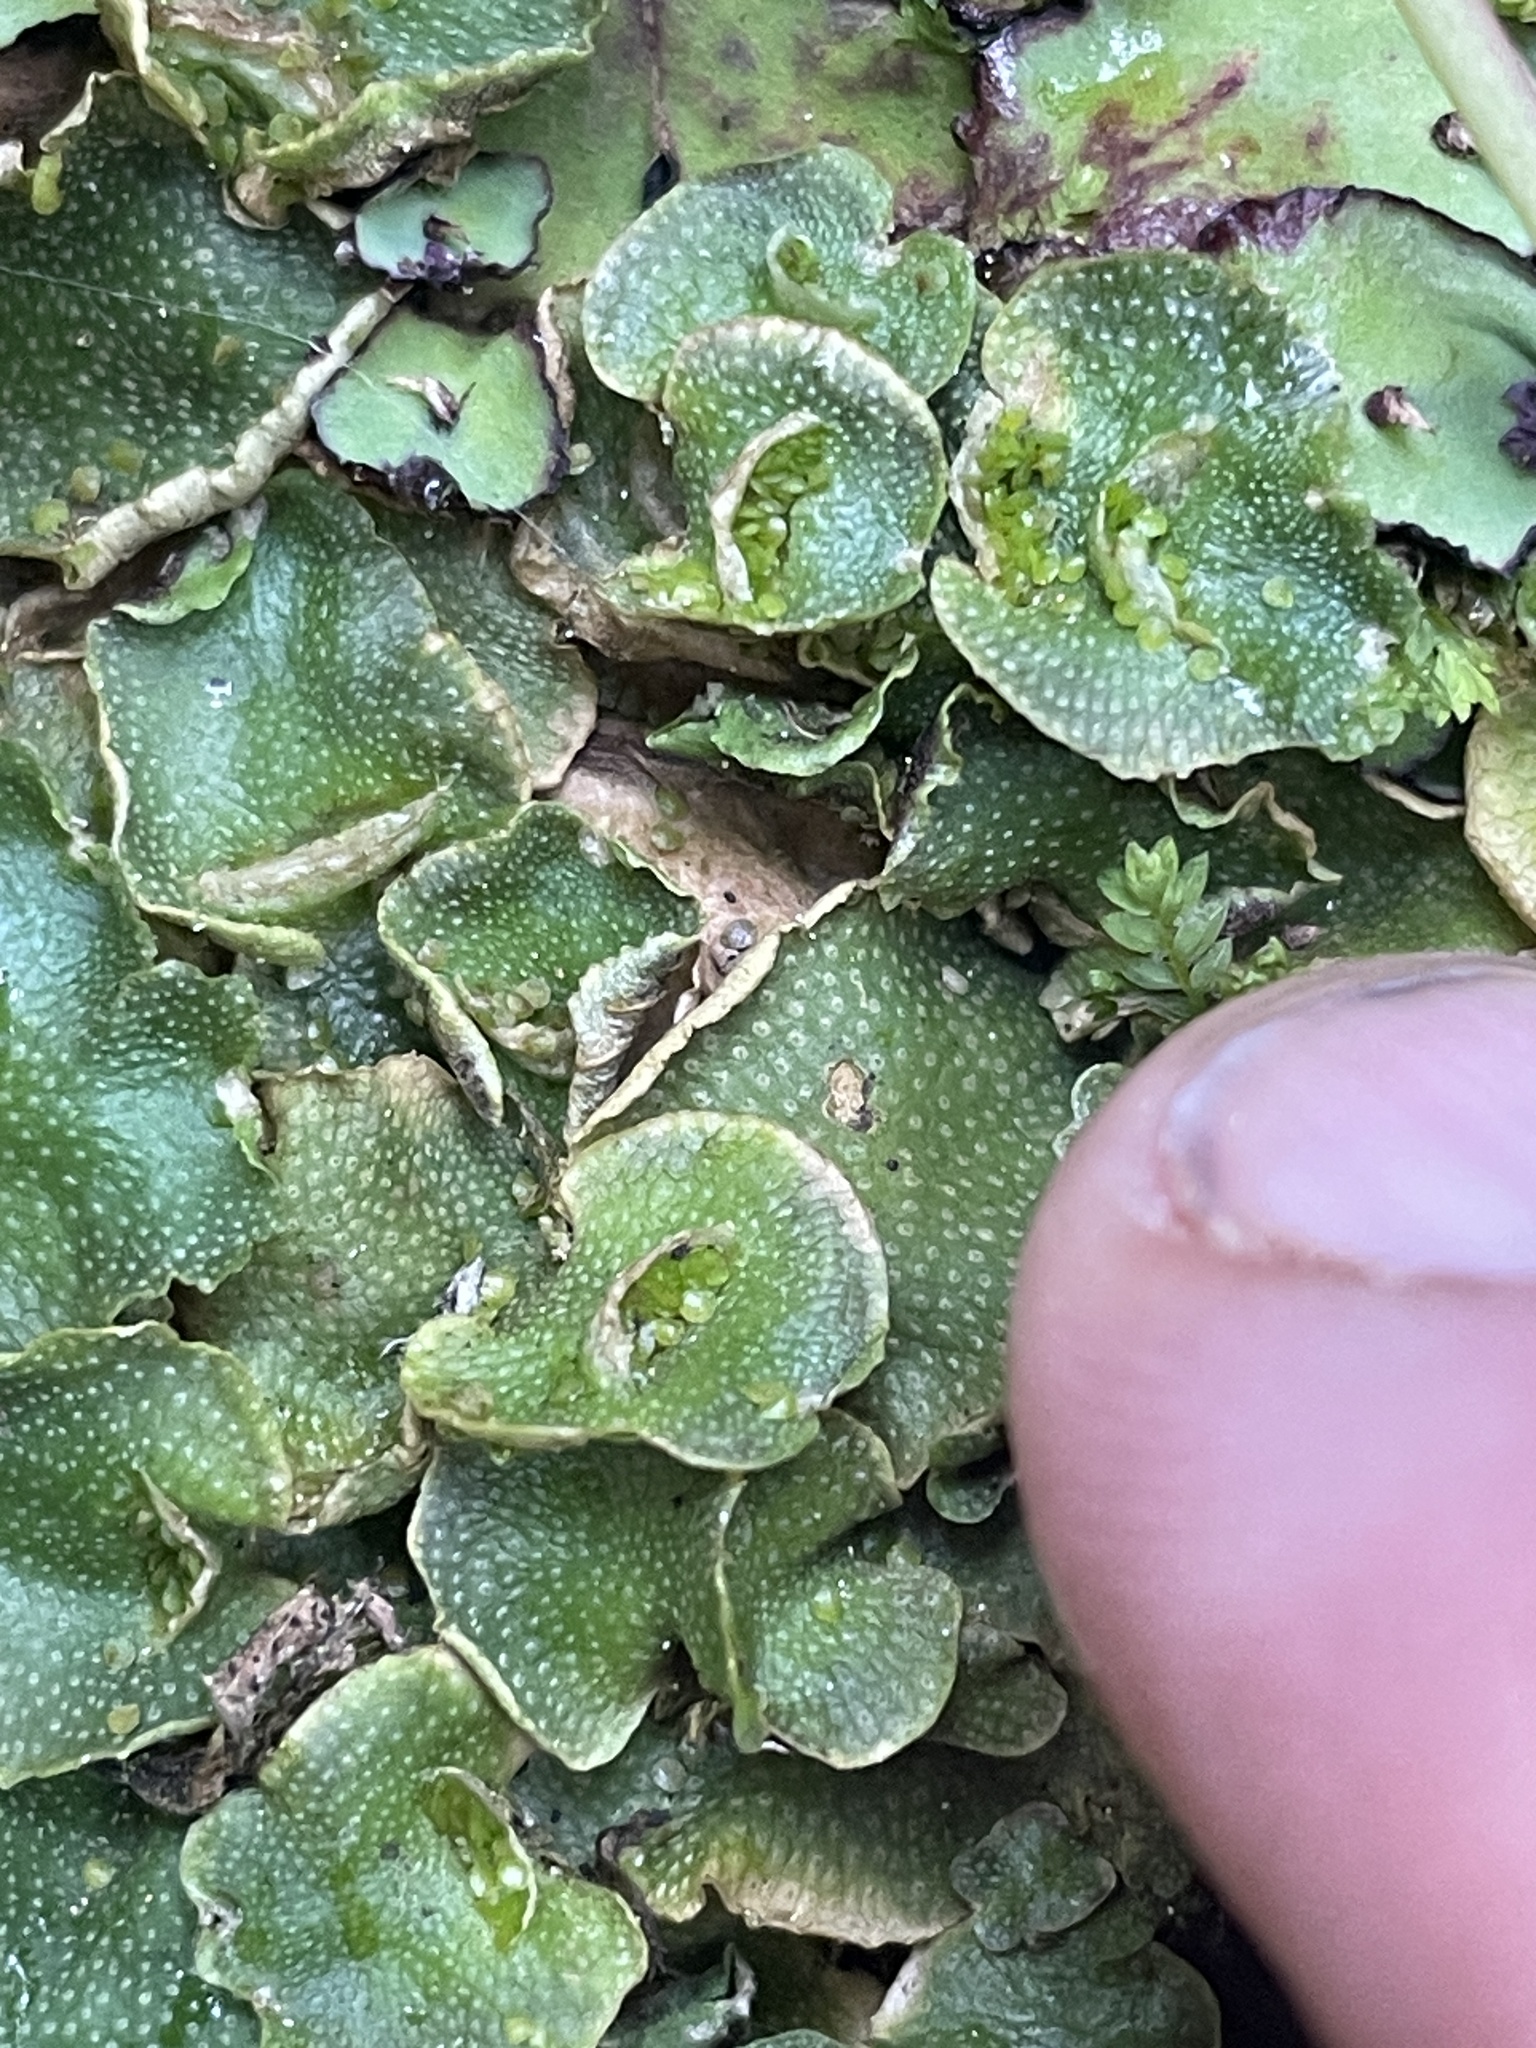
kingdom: Plantae
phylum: Marchantiophyta
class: Marchantiopsida
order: Lunulariales
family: Lunulariaceae
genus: Lunularia
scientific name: Lunularia cruciata
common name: Crescent-cup liverwort
